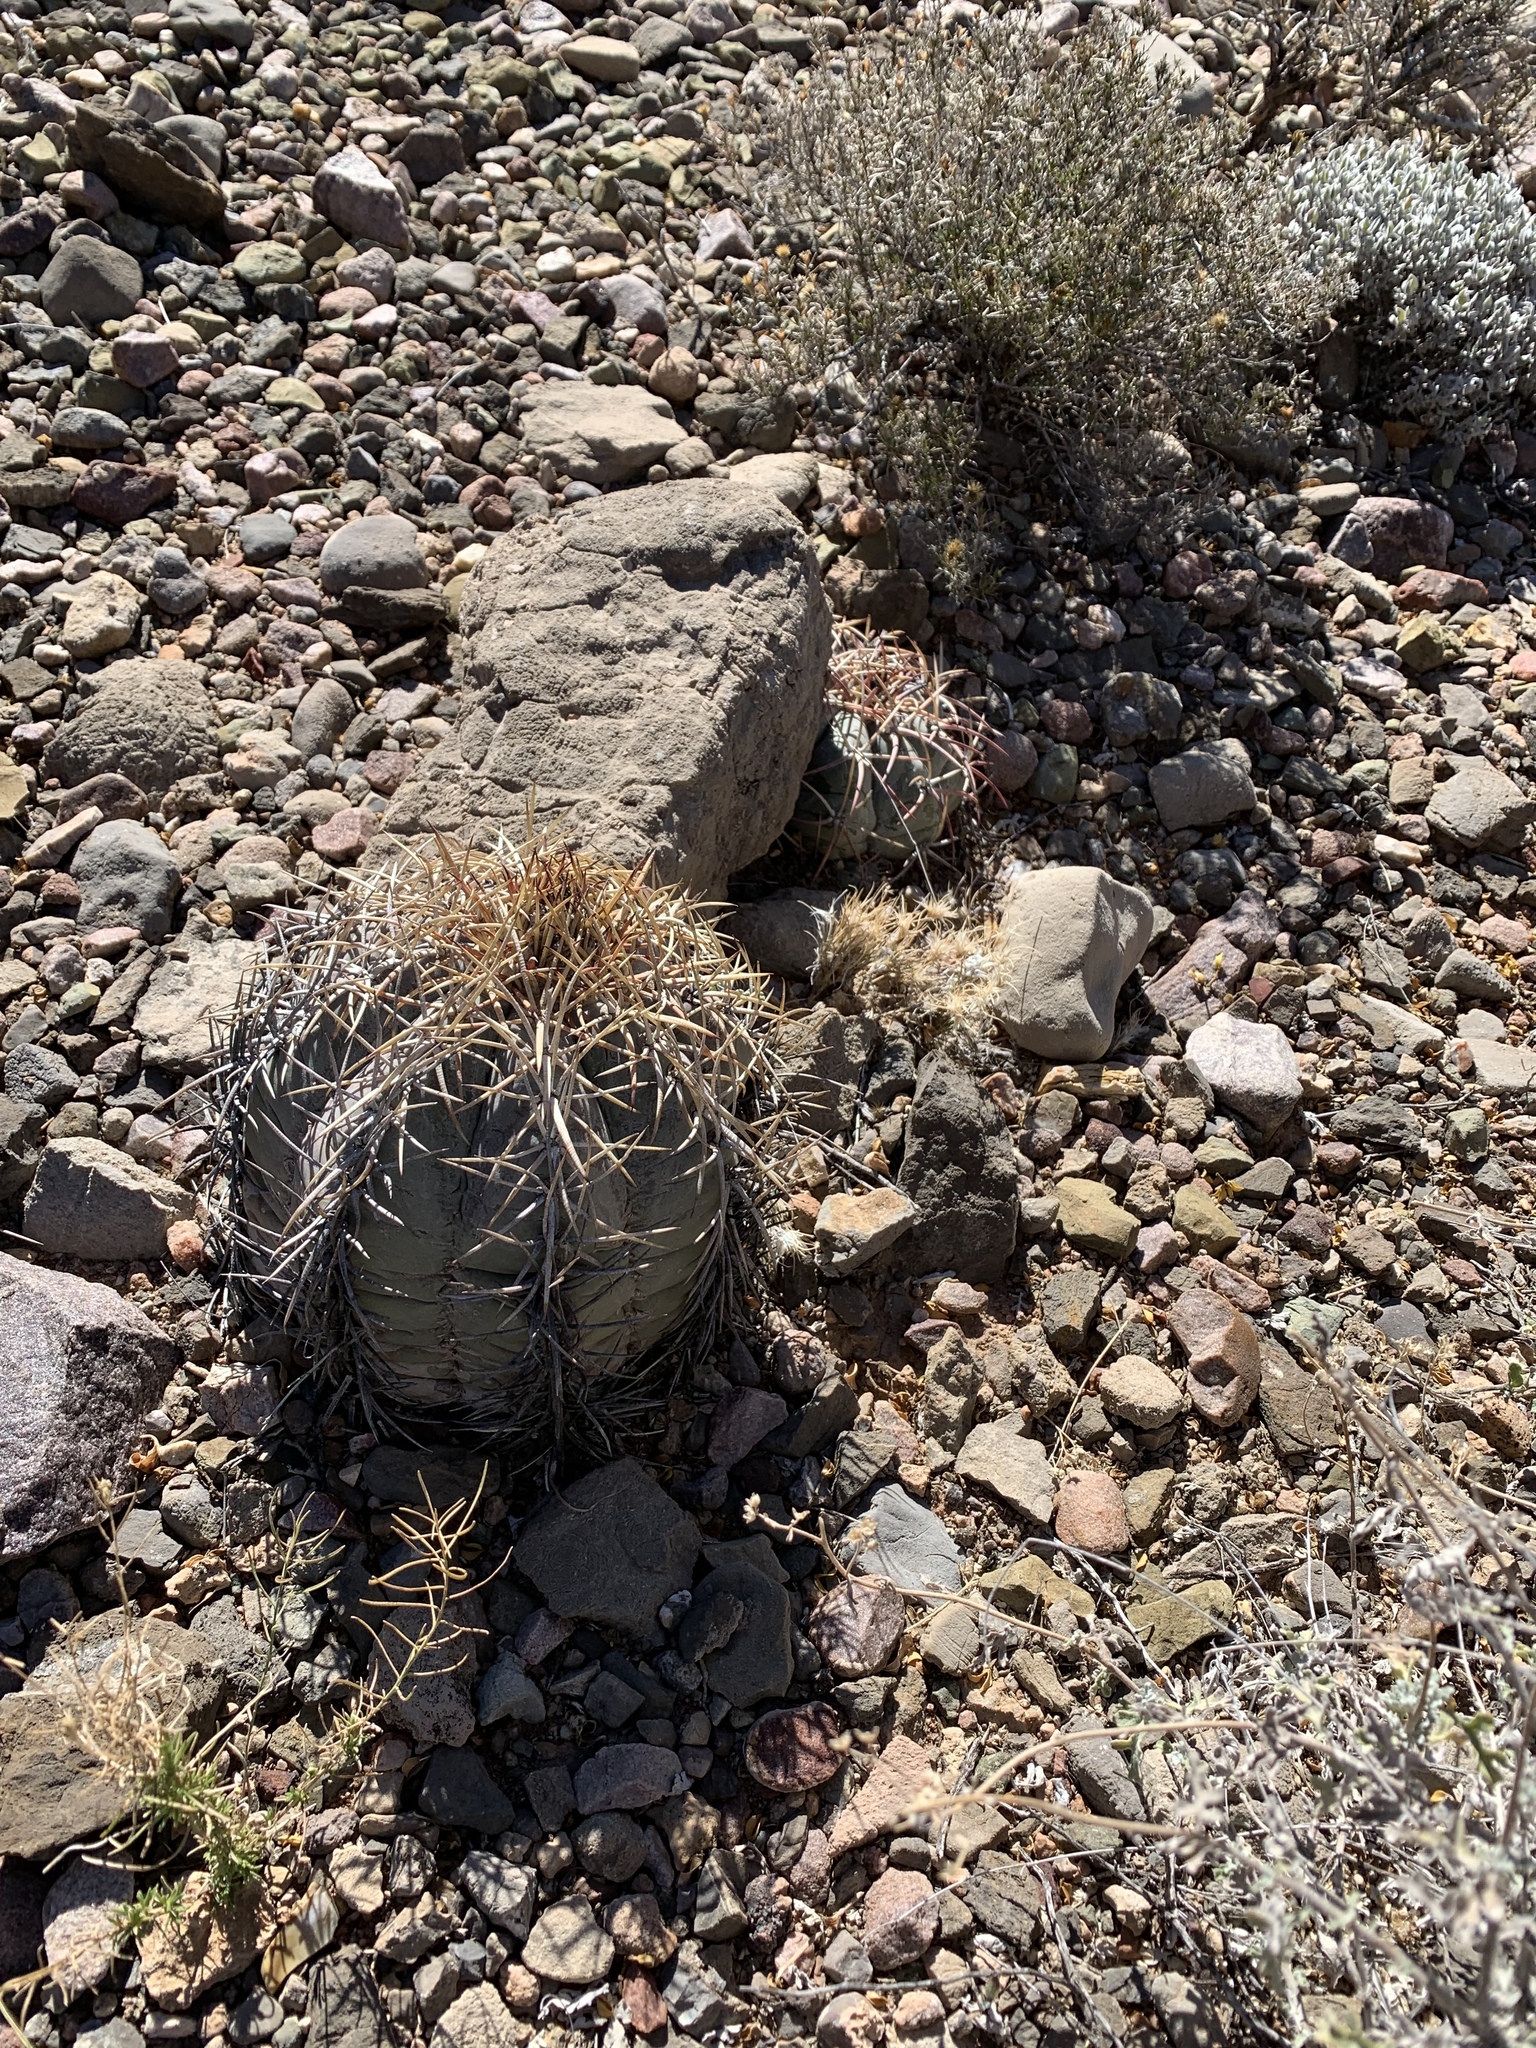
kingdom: Plantae
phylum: Tracheophyta
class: Magnoliopsida
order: Caryophyllales
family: Cactaceae
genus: Echinocactus
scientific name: Echinocactus horizonthalonius
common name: Devilshead
